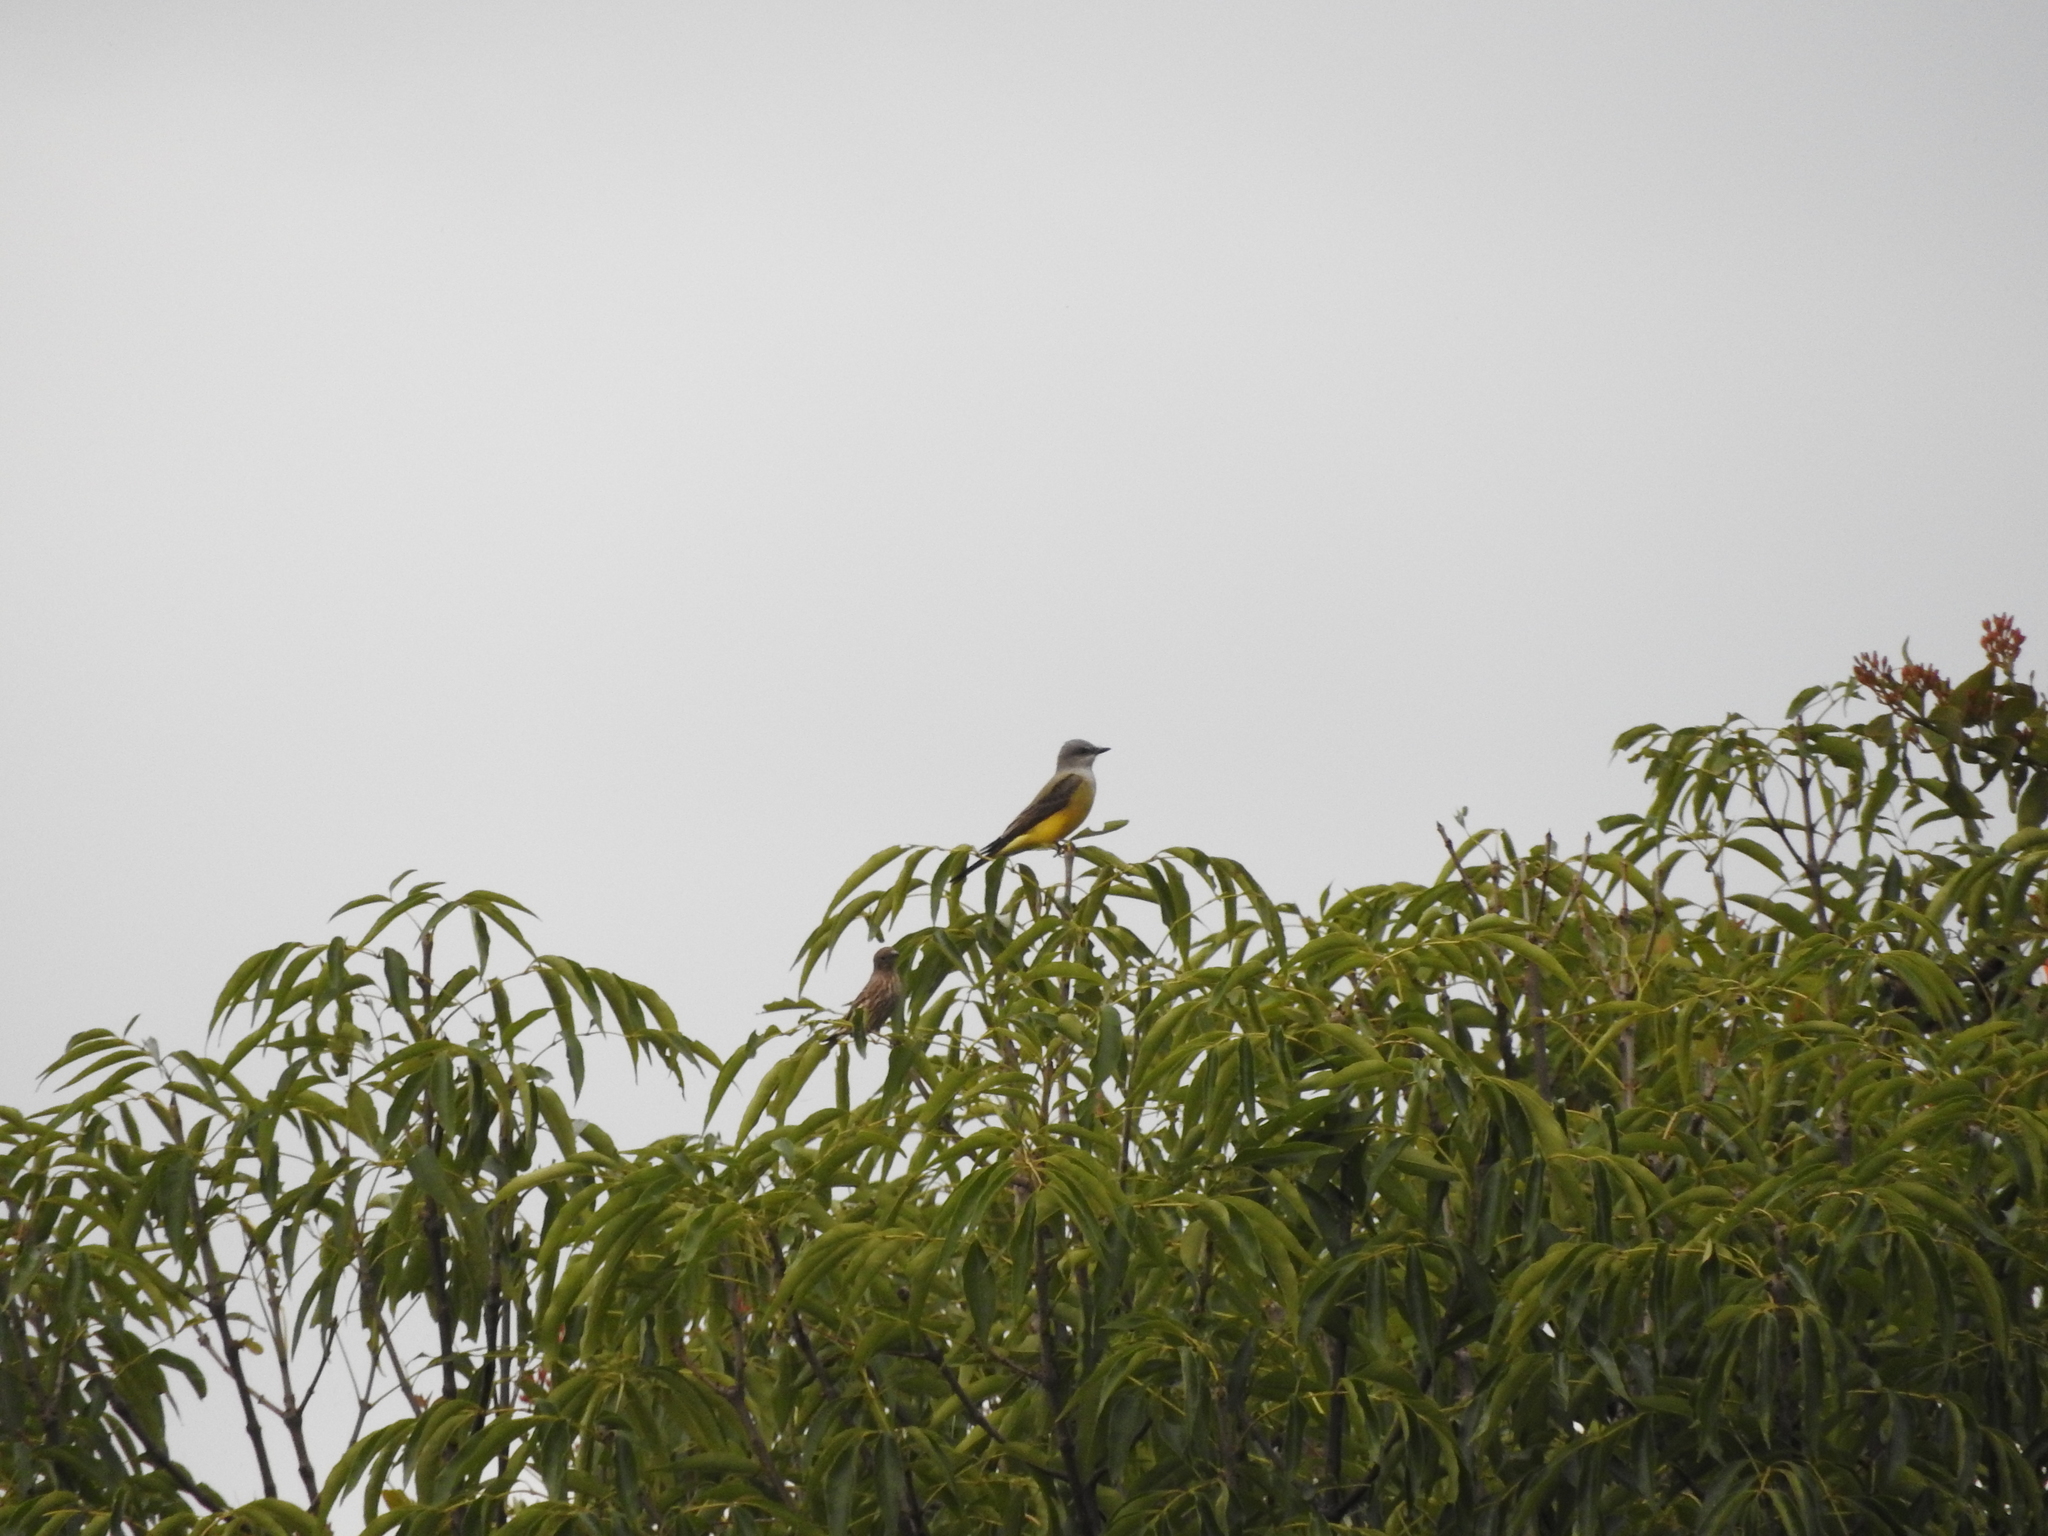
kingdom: Animalia
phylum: Chordata
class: Aves
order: Passeriformes
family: Tyrannidae
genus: Tyrannus
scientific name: Tyrannus melancholicus
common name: Tropical kingbird
